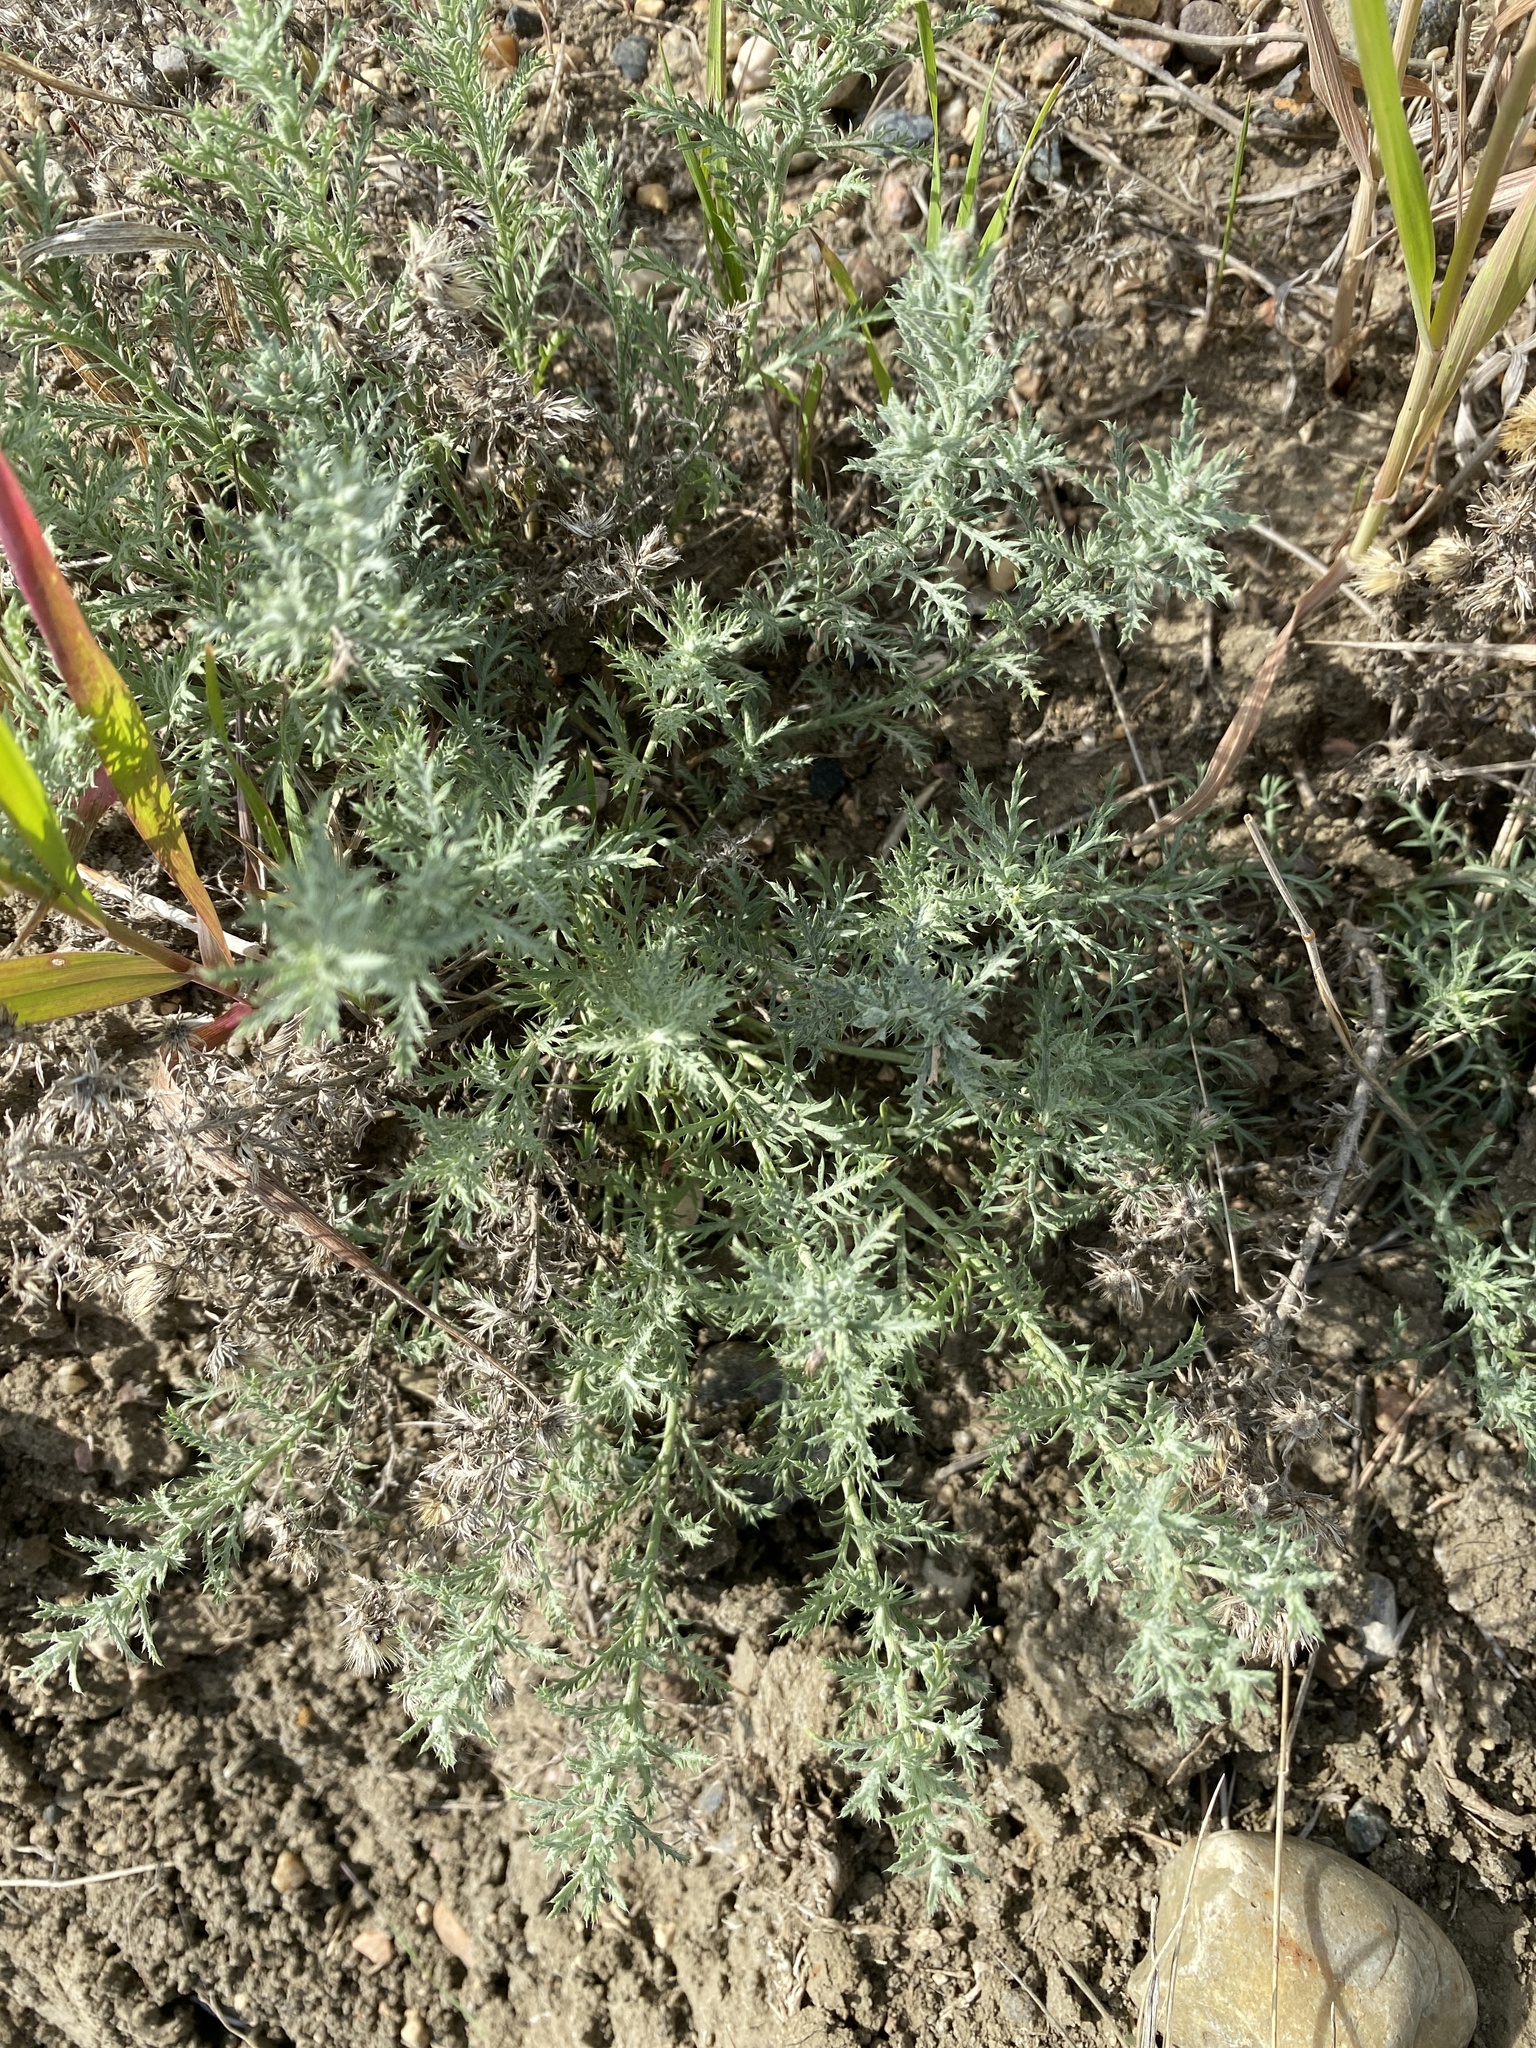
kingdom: Plantae
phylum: Tracheophyta
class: Magnoliopsida
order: Asterales
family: Asteraceae
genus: Xanthisma
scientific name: Xanthisma spinulosum
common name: Spiny goldenweed
